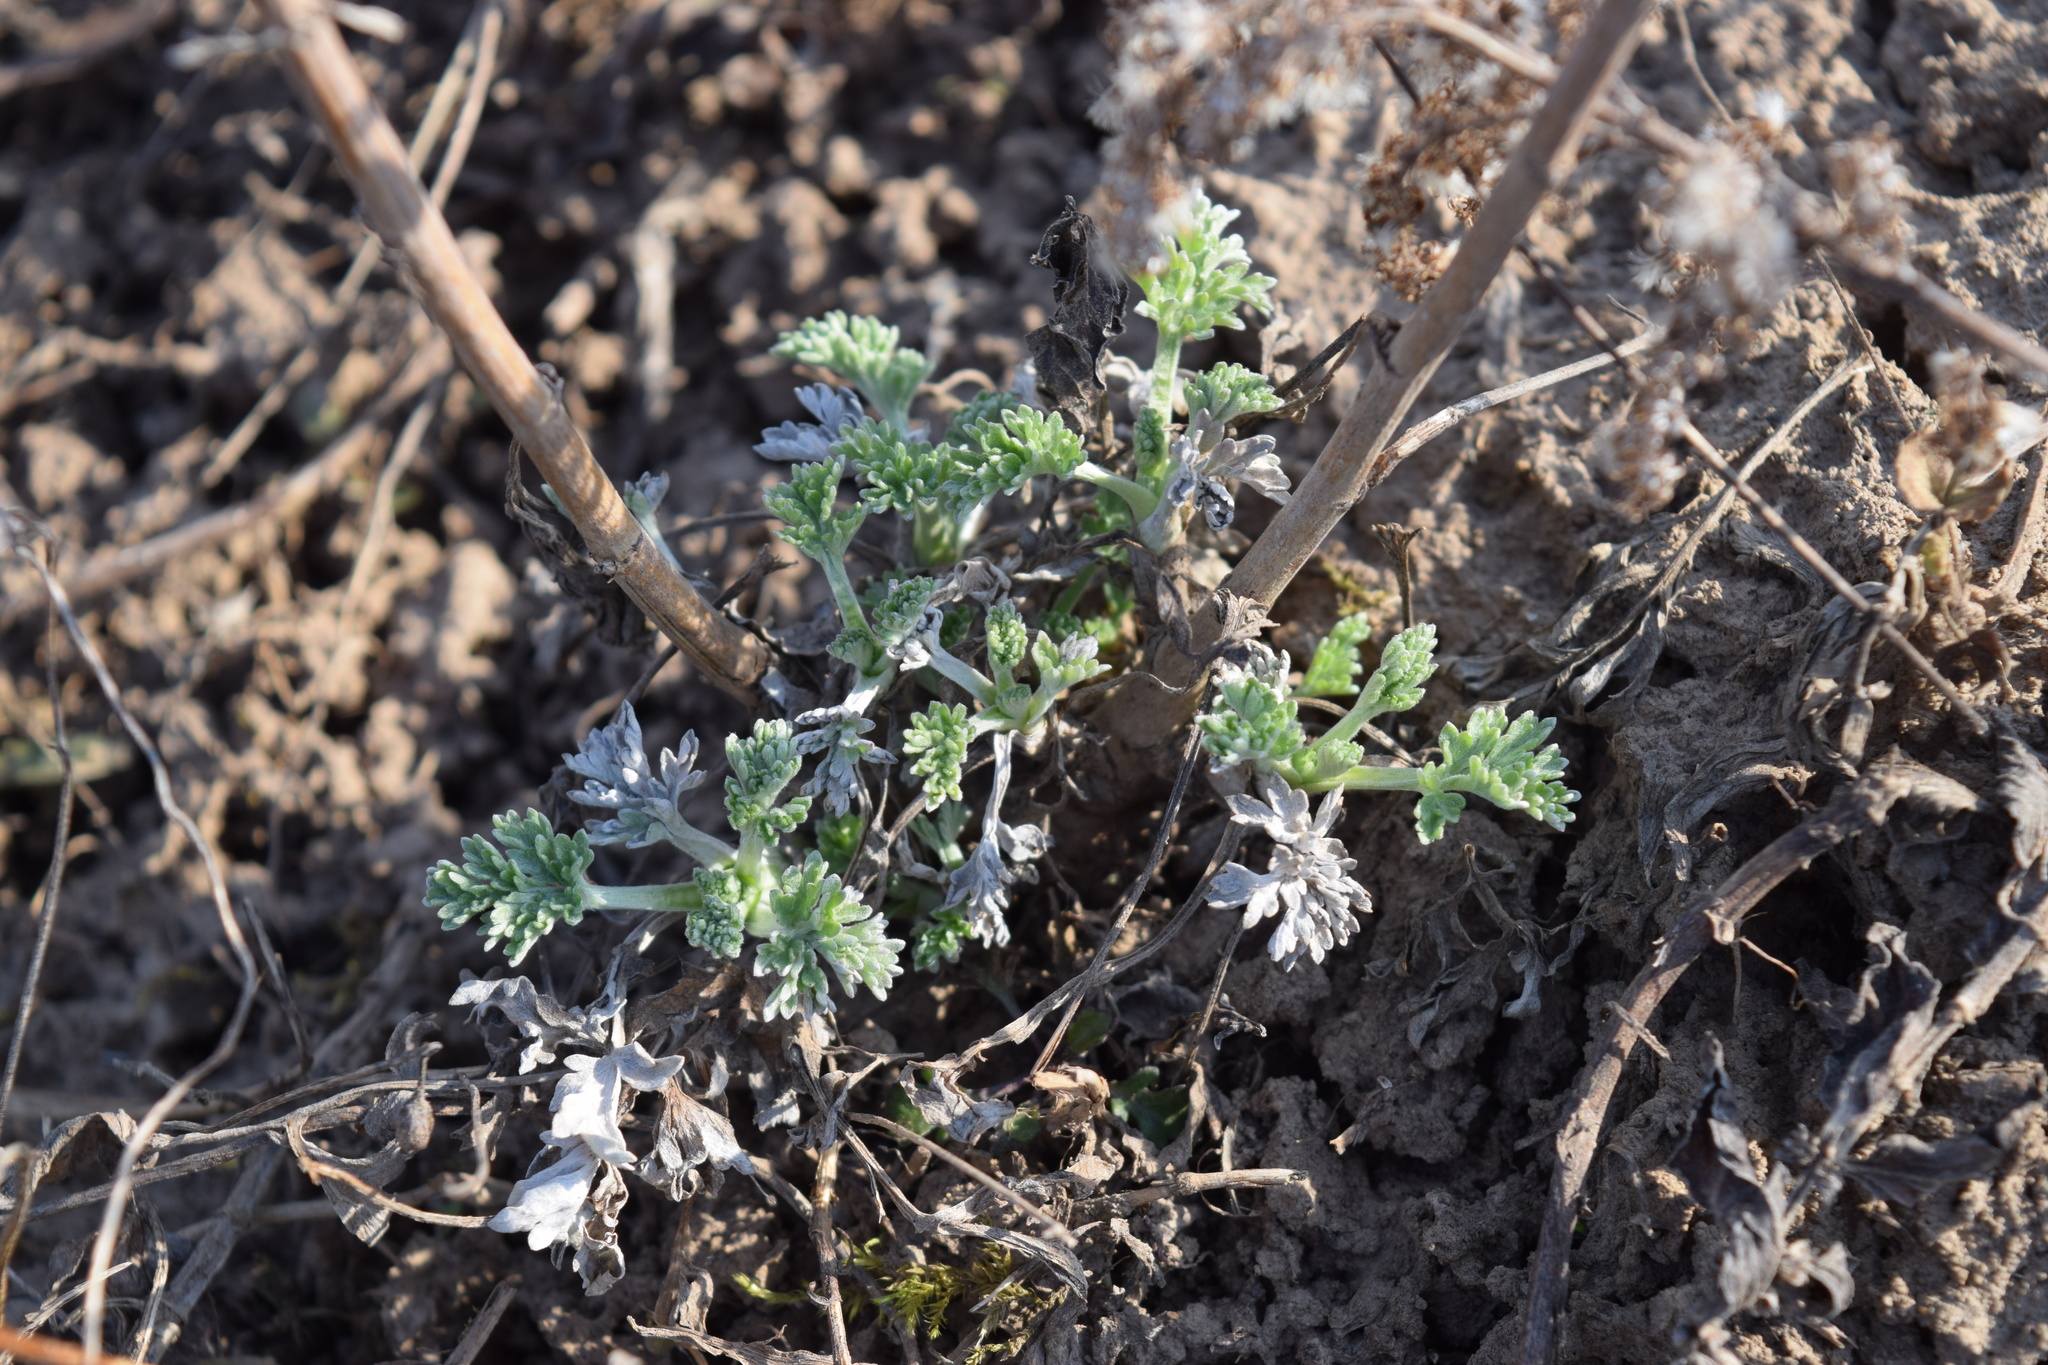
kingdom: Plantae
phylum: Tracheophyta
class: Magnoliopsida
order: Asterales
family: Asteraceae
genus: Artemisia
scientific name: Artemisia absinthium
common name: Wormwood
